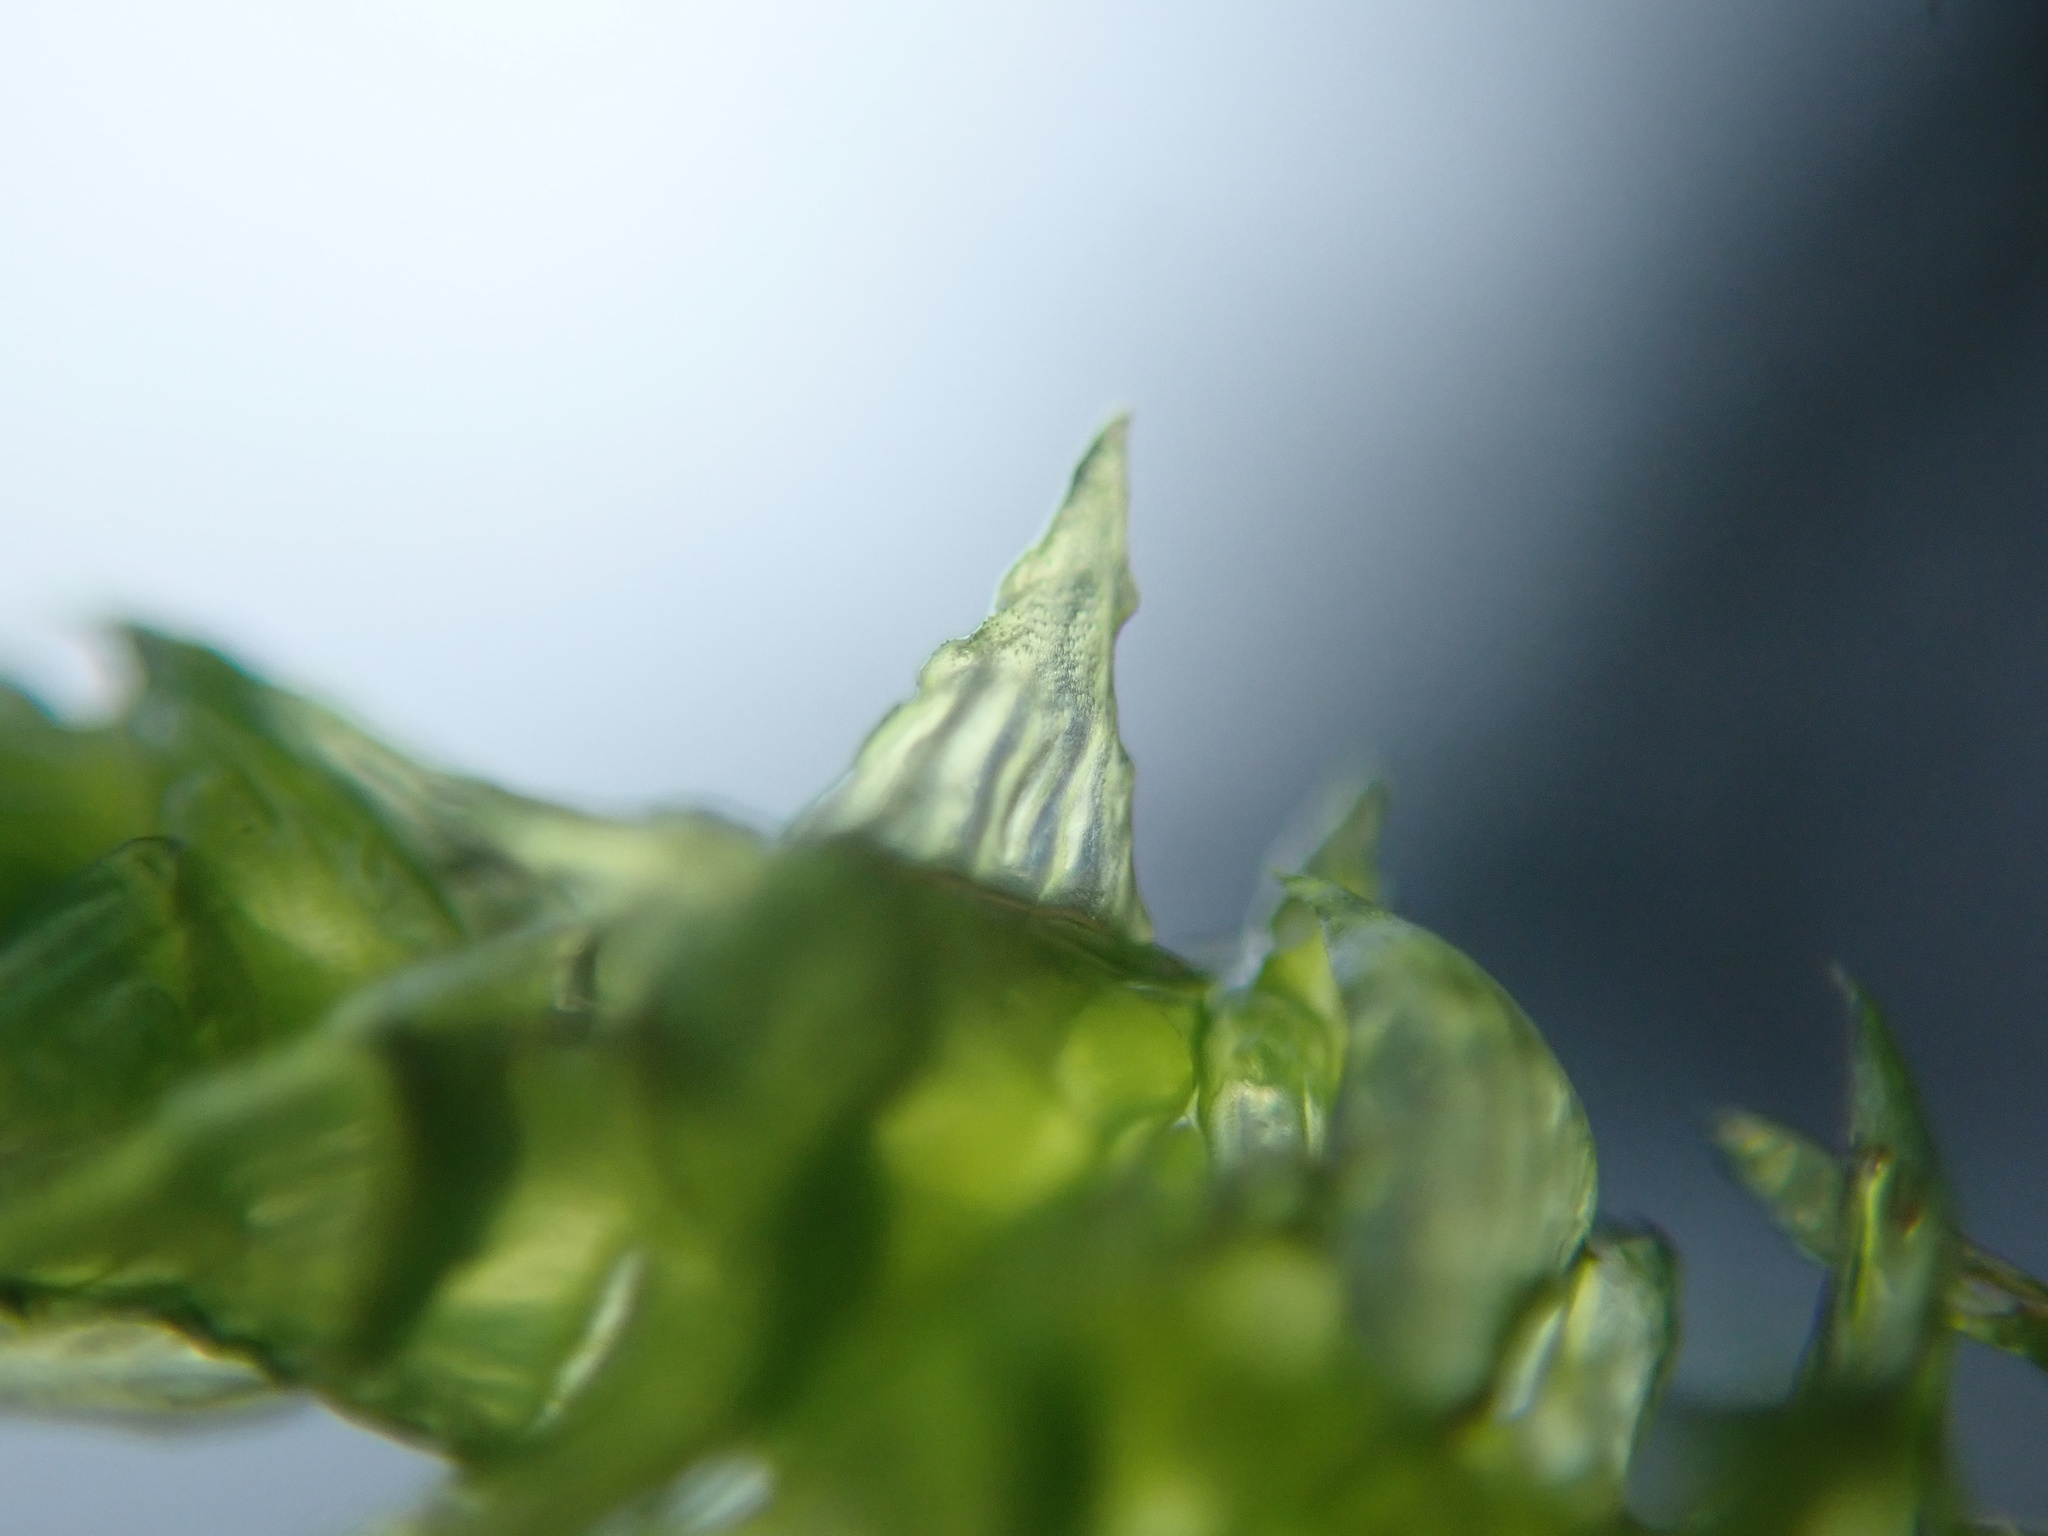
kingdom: Plantae
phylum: Bryophyta
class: Bryopsida
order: Hypnales
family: Hylocomiaceae
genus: Hylocomiadelphus
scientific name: Hylocomiadelphus triquetrus
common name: Rough goose neck moss
